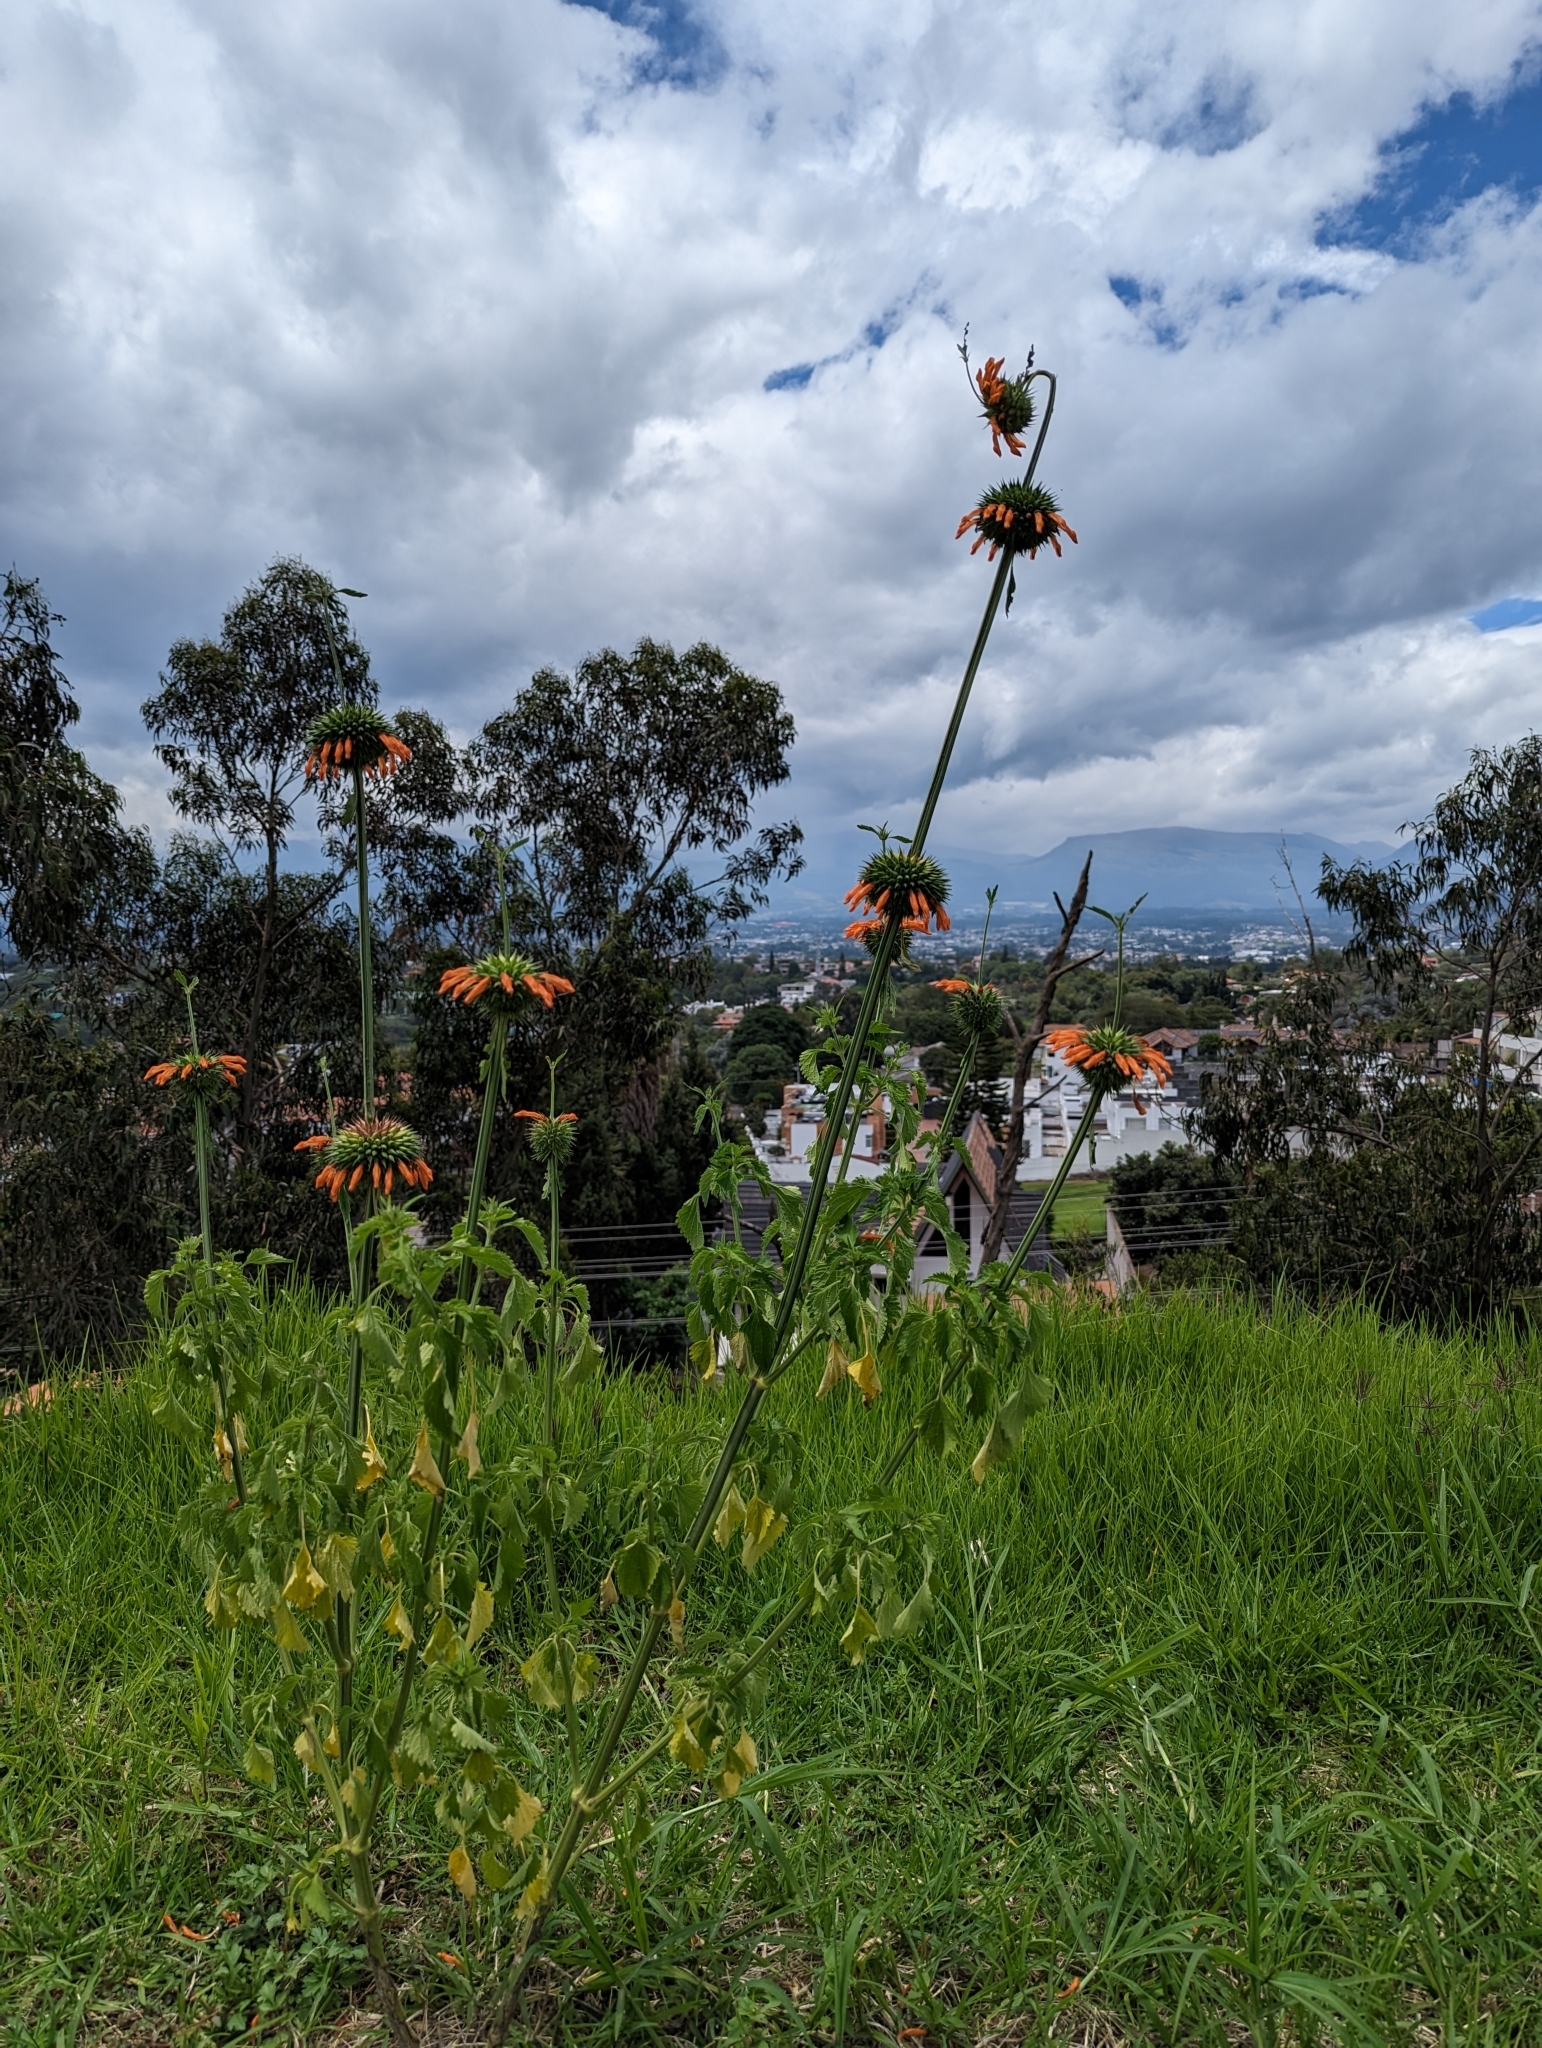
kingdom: Plantae
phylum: Tracheophyta
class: Magnoliopsida
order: Lamiales
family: Lamiaceae
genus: Leonotis
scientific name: Leonotis nepetifolia
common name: Christmas candlestick
